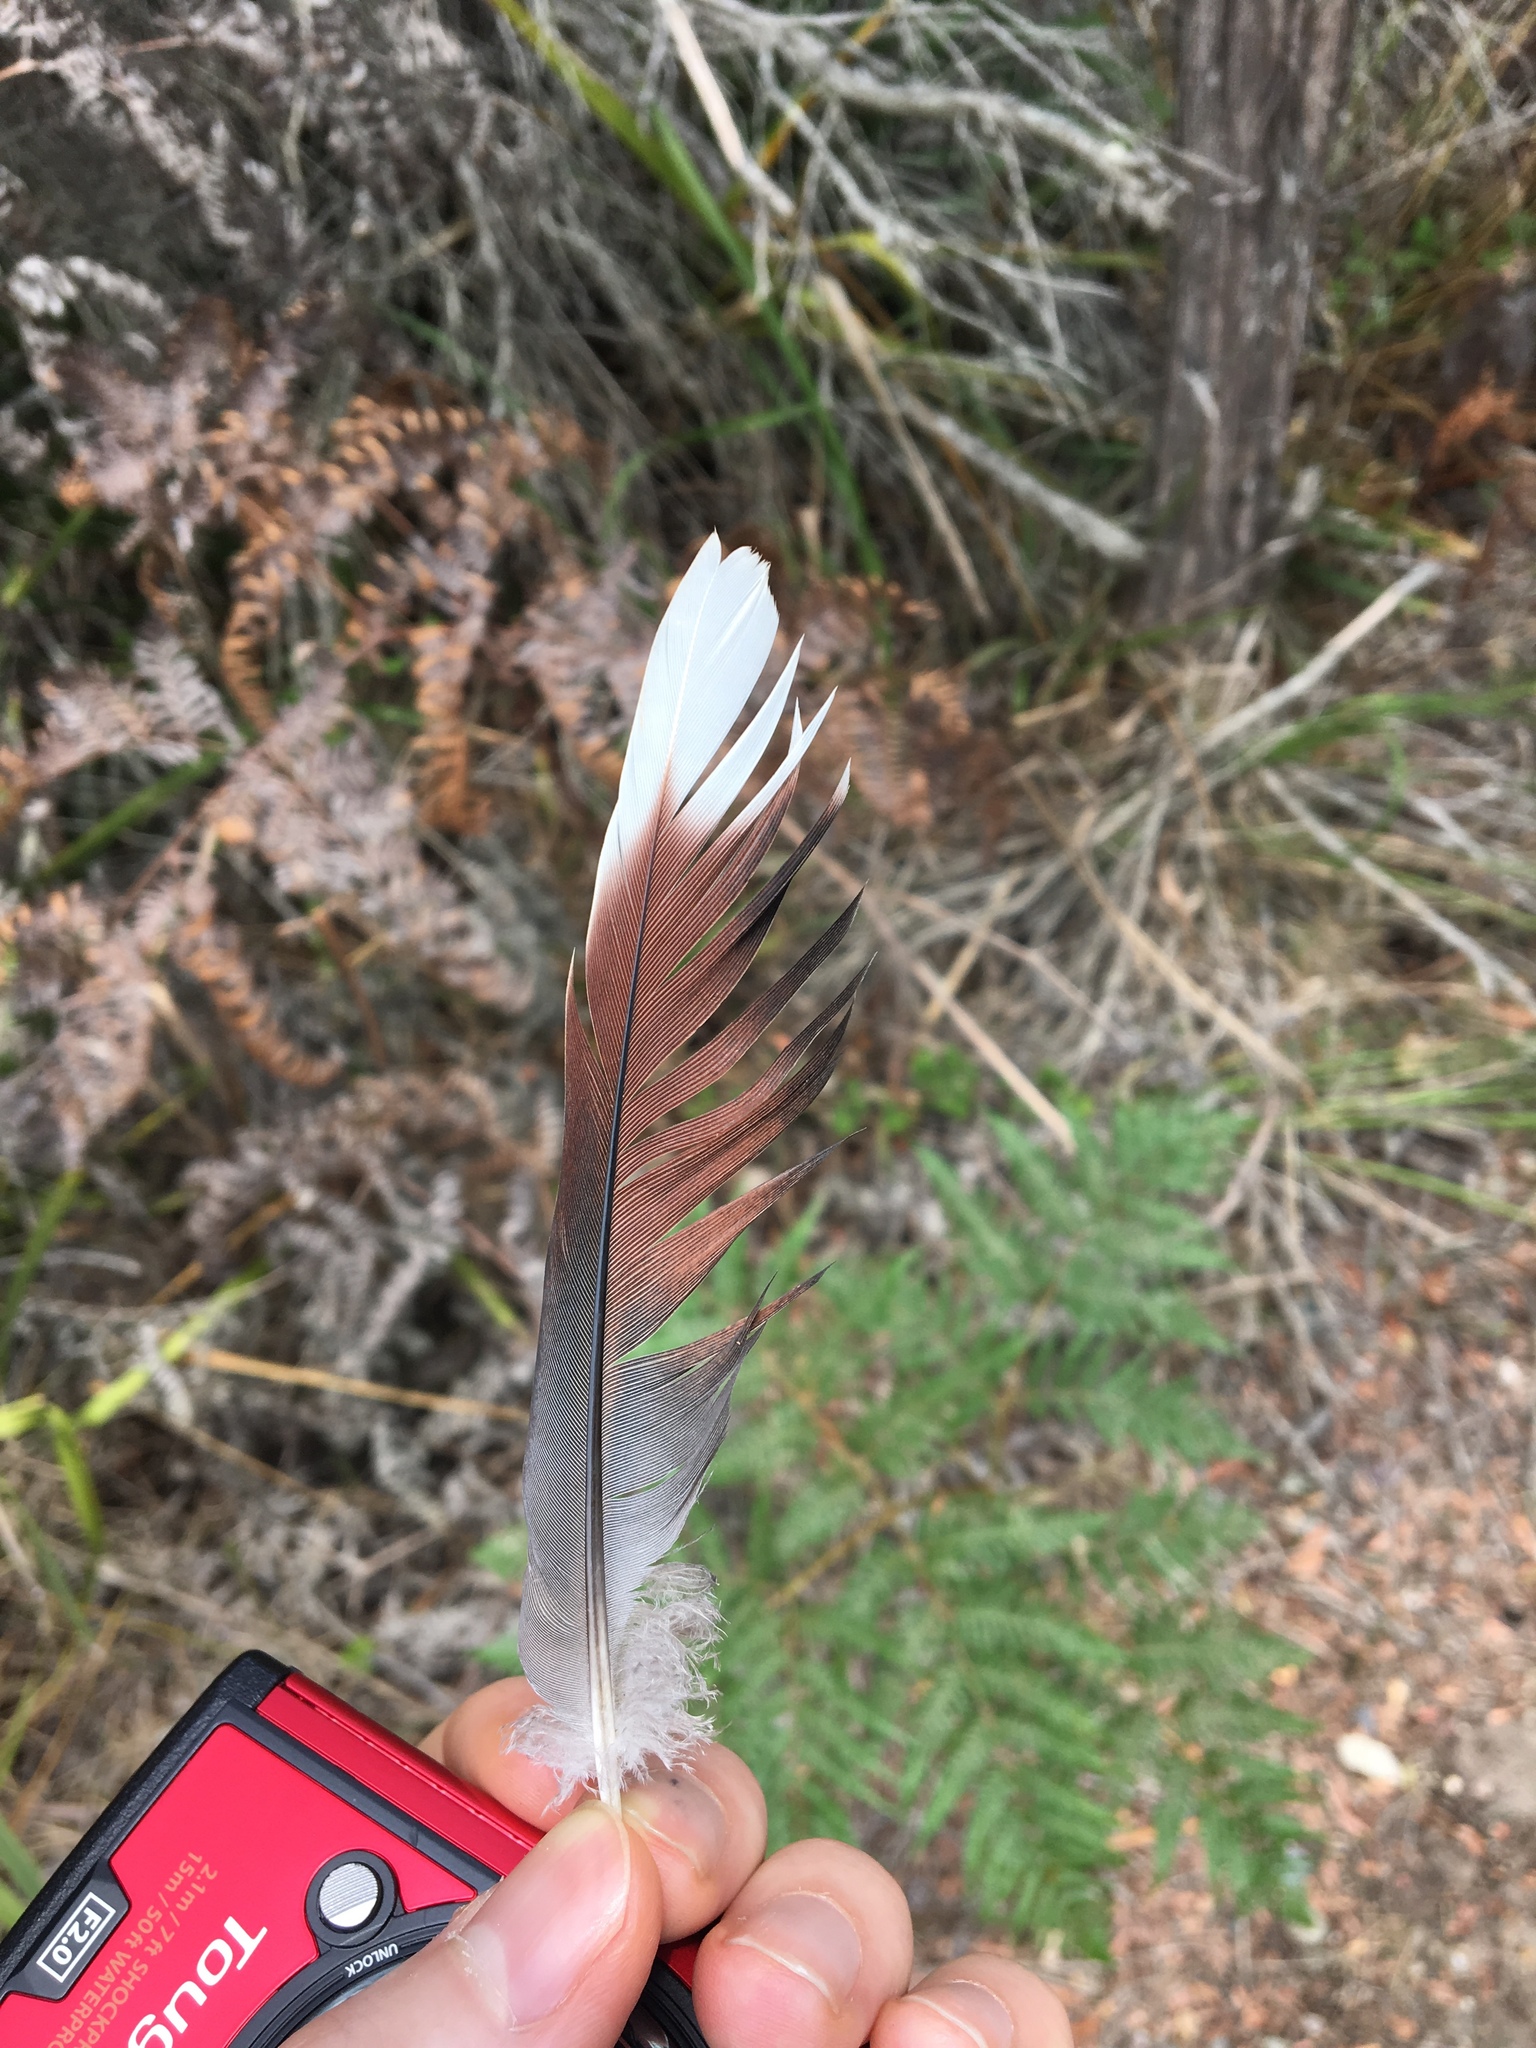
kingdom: Animalia
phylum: Chordata
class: Aves
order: Columbiformes
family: Columbidae
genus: Geopelia
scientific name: Geopelia humeralis
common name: Bar-shouldered dove
